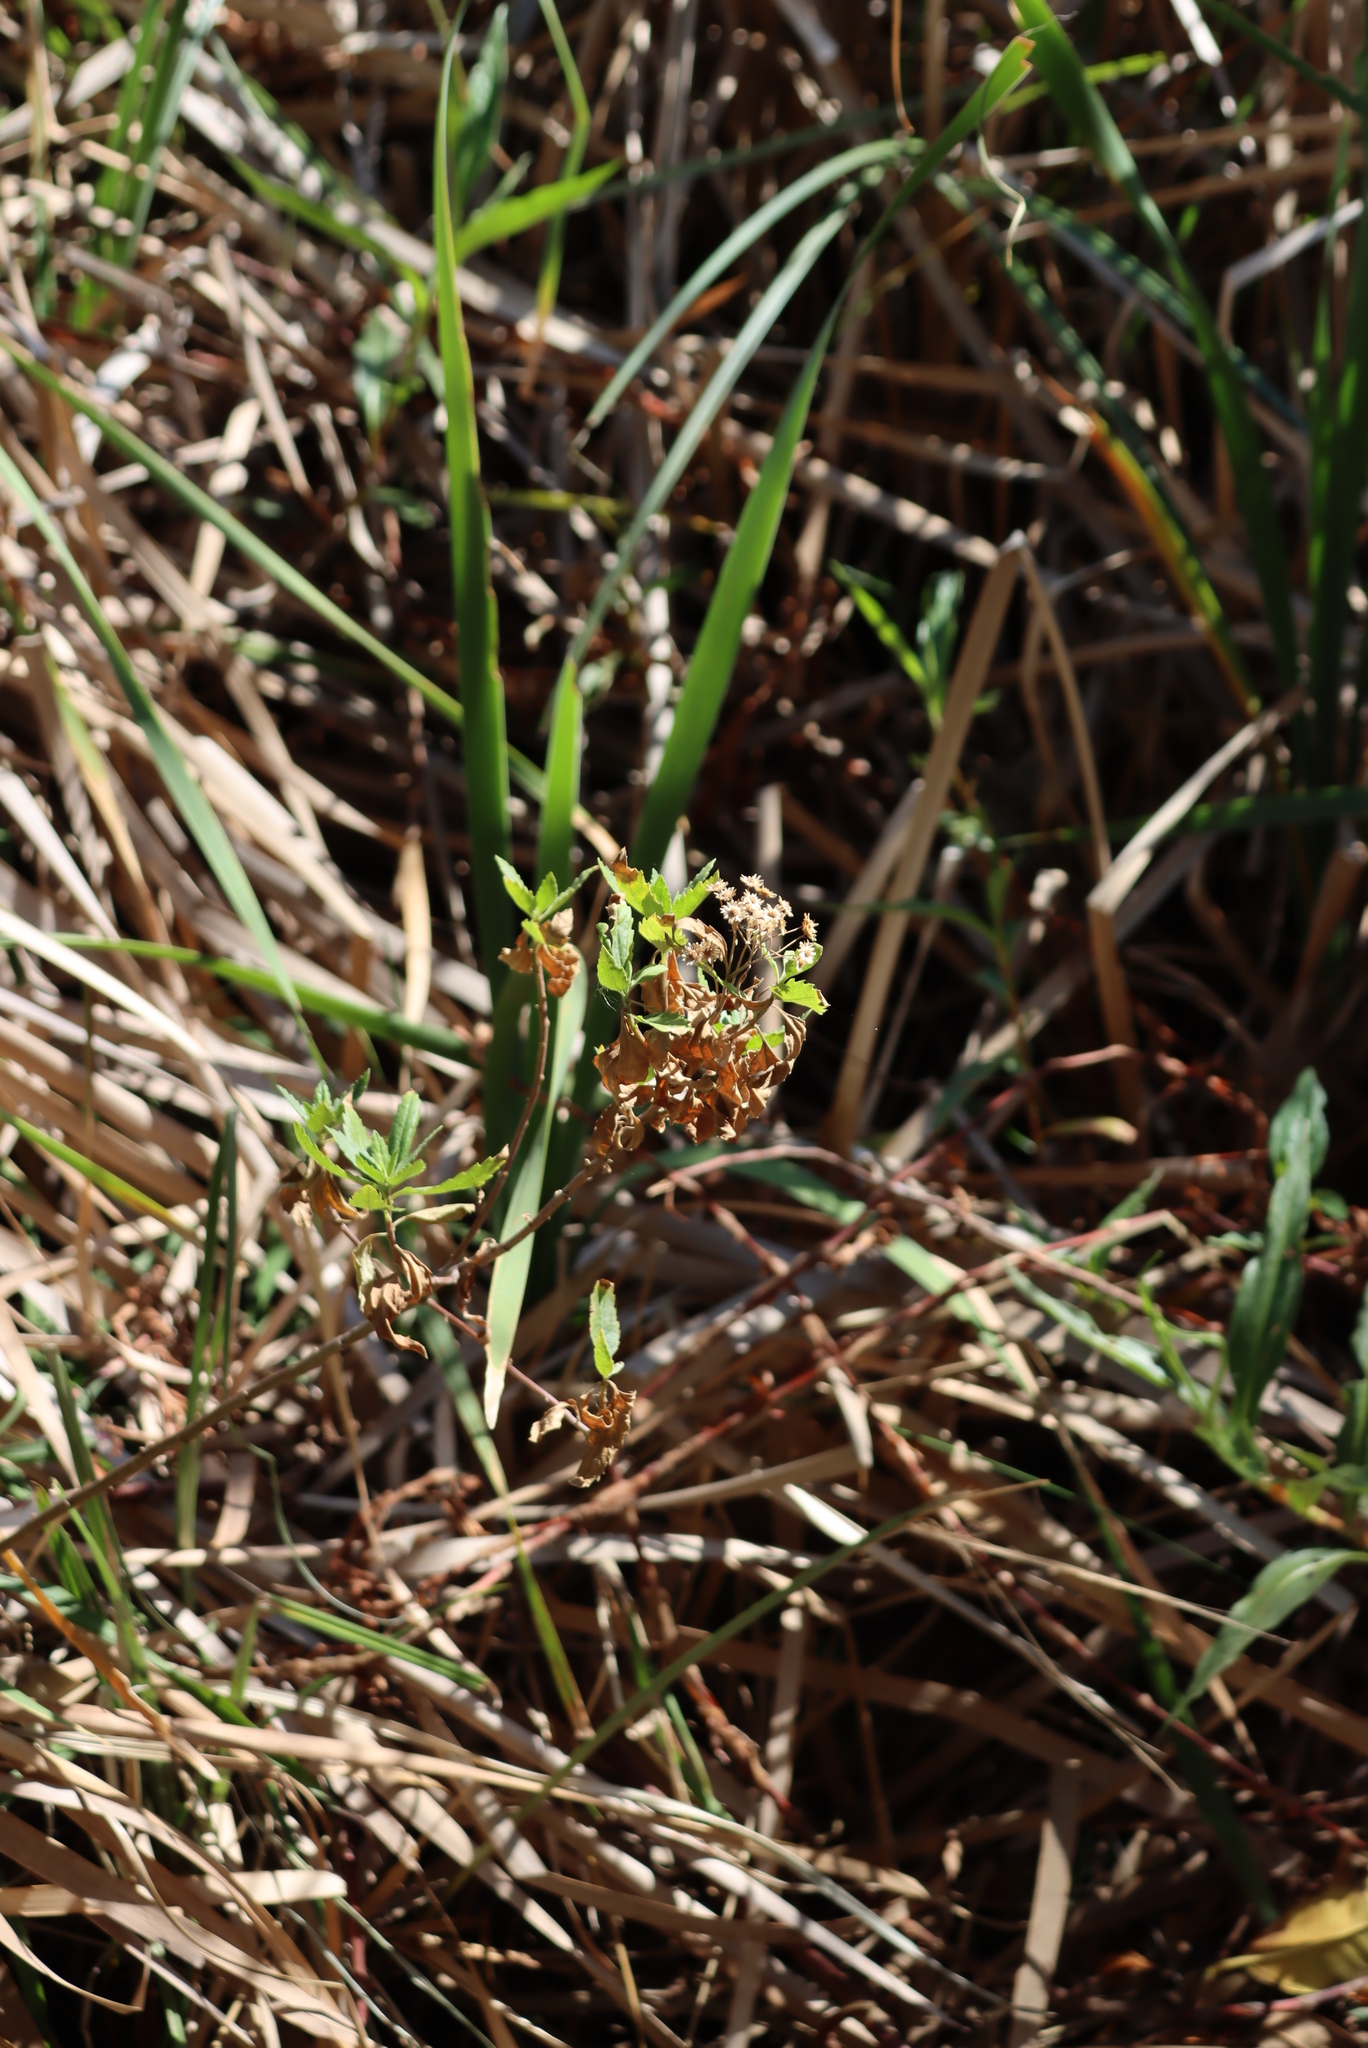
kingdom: Plantae
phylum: Tracheophyta
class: Magnoliopsida
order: Asterales
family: Asteraceae
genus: Nidorella
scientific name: Nidorella ivifolia
